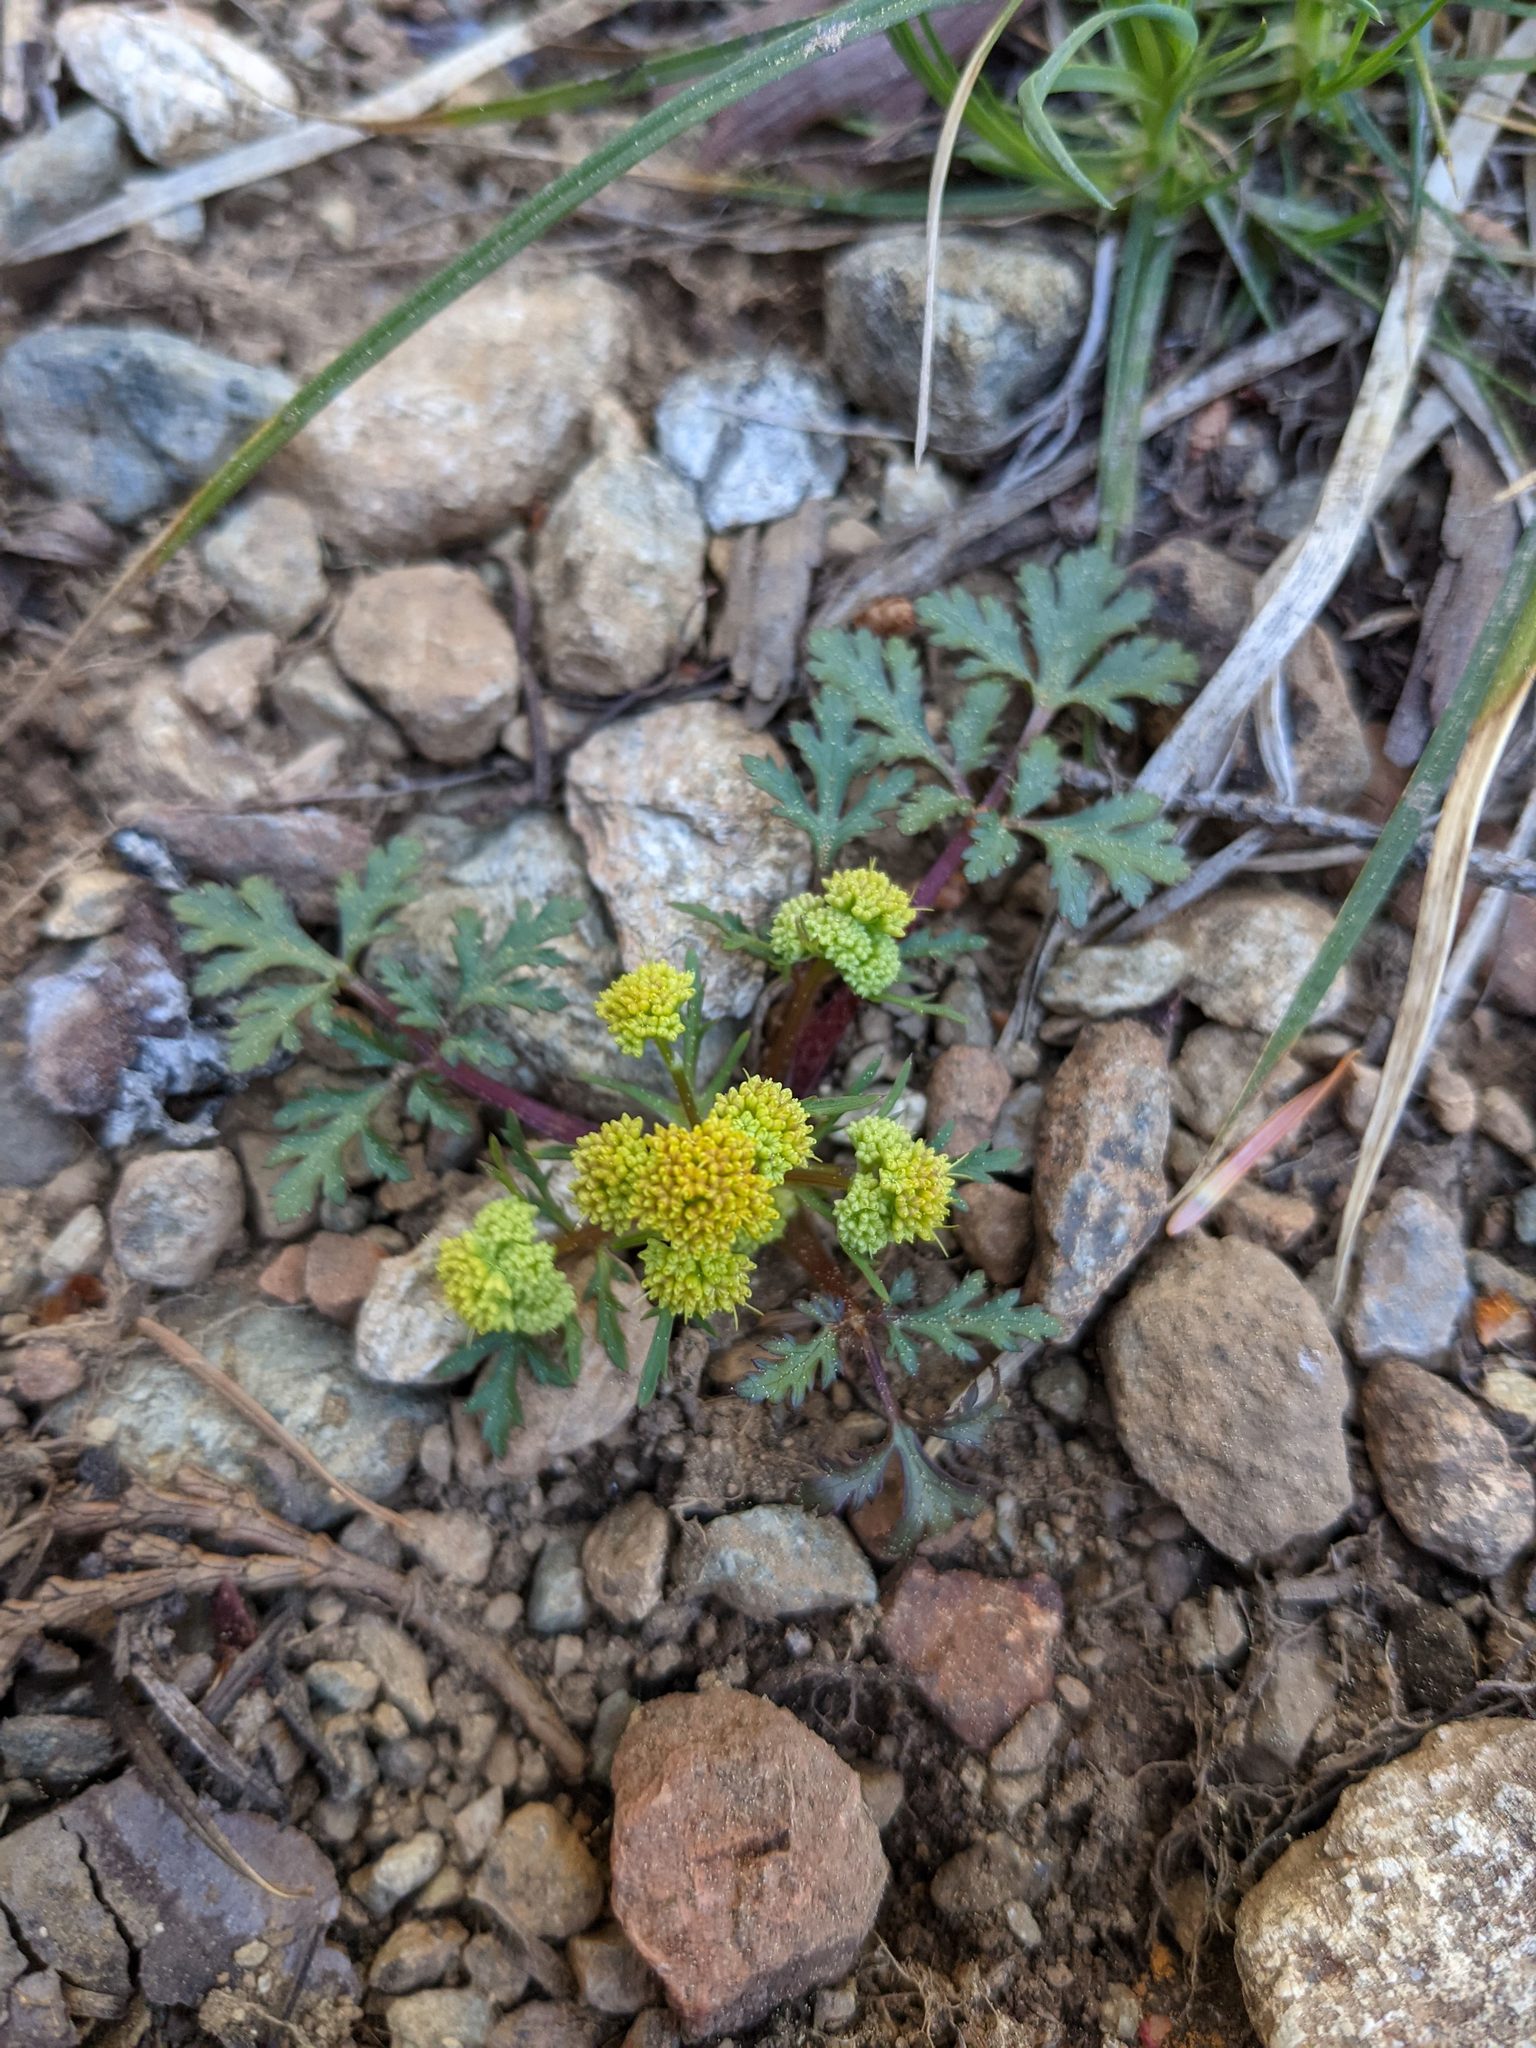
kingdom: Plantae
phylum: Tracheophyta
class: Magnoliopsida
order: Apiales
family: Apiaceae
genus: Sanicula
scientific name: Sanicula graveolens
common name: Sierra sanicle
